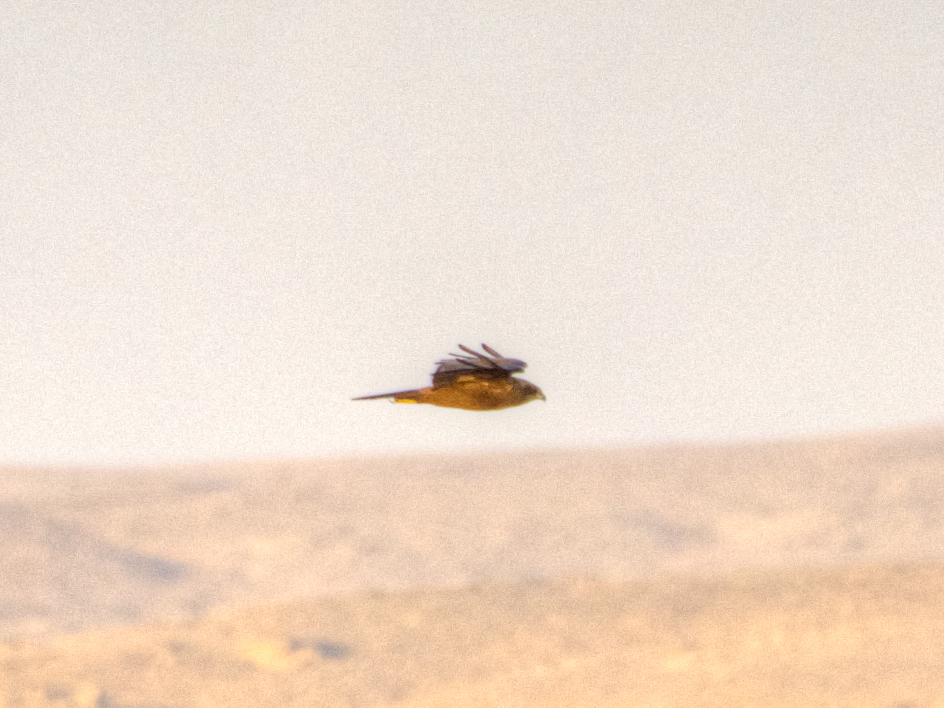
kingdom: Animalia
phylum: Chordata
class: Aves
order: Accipitriformes
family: Accipitridae
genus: Milvus
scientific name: Milvus aegyptius
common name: Yellow-billed kite
